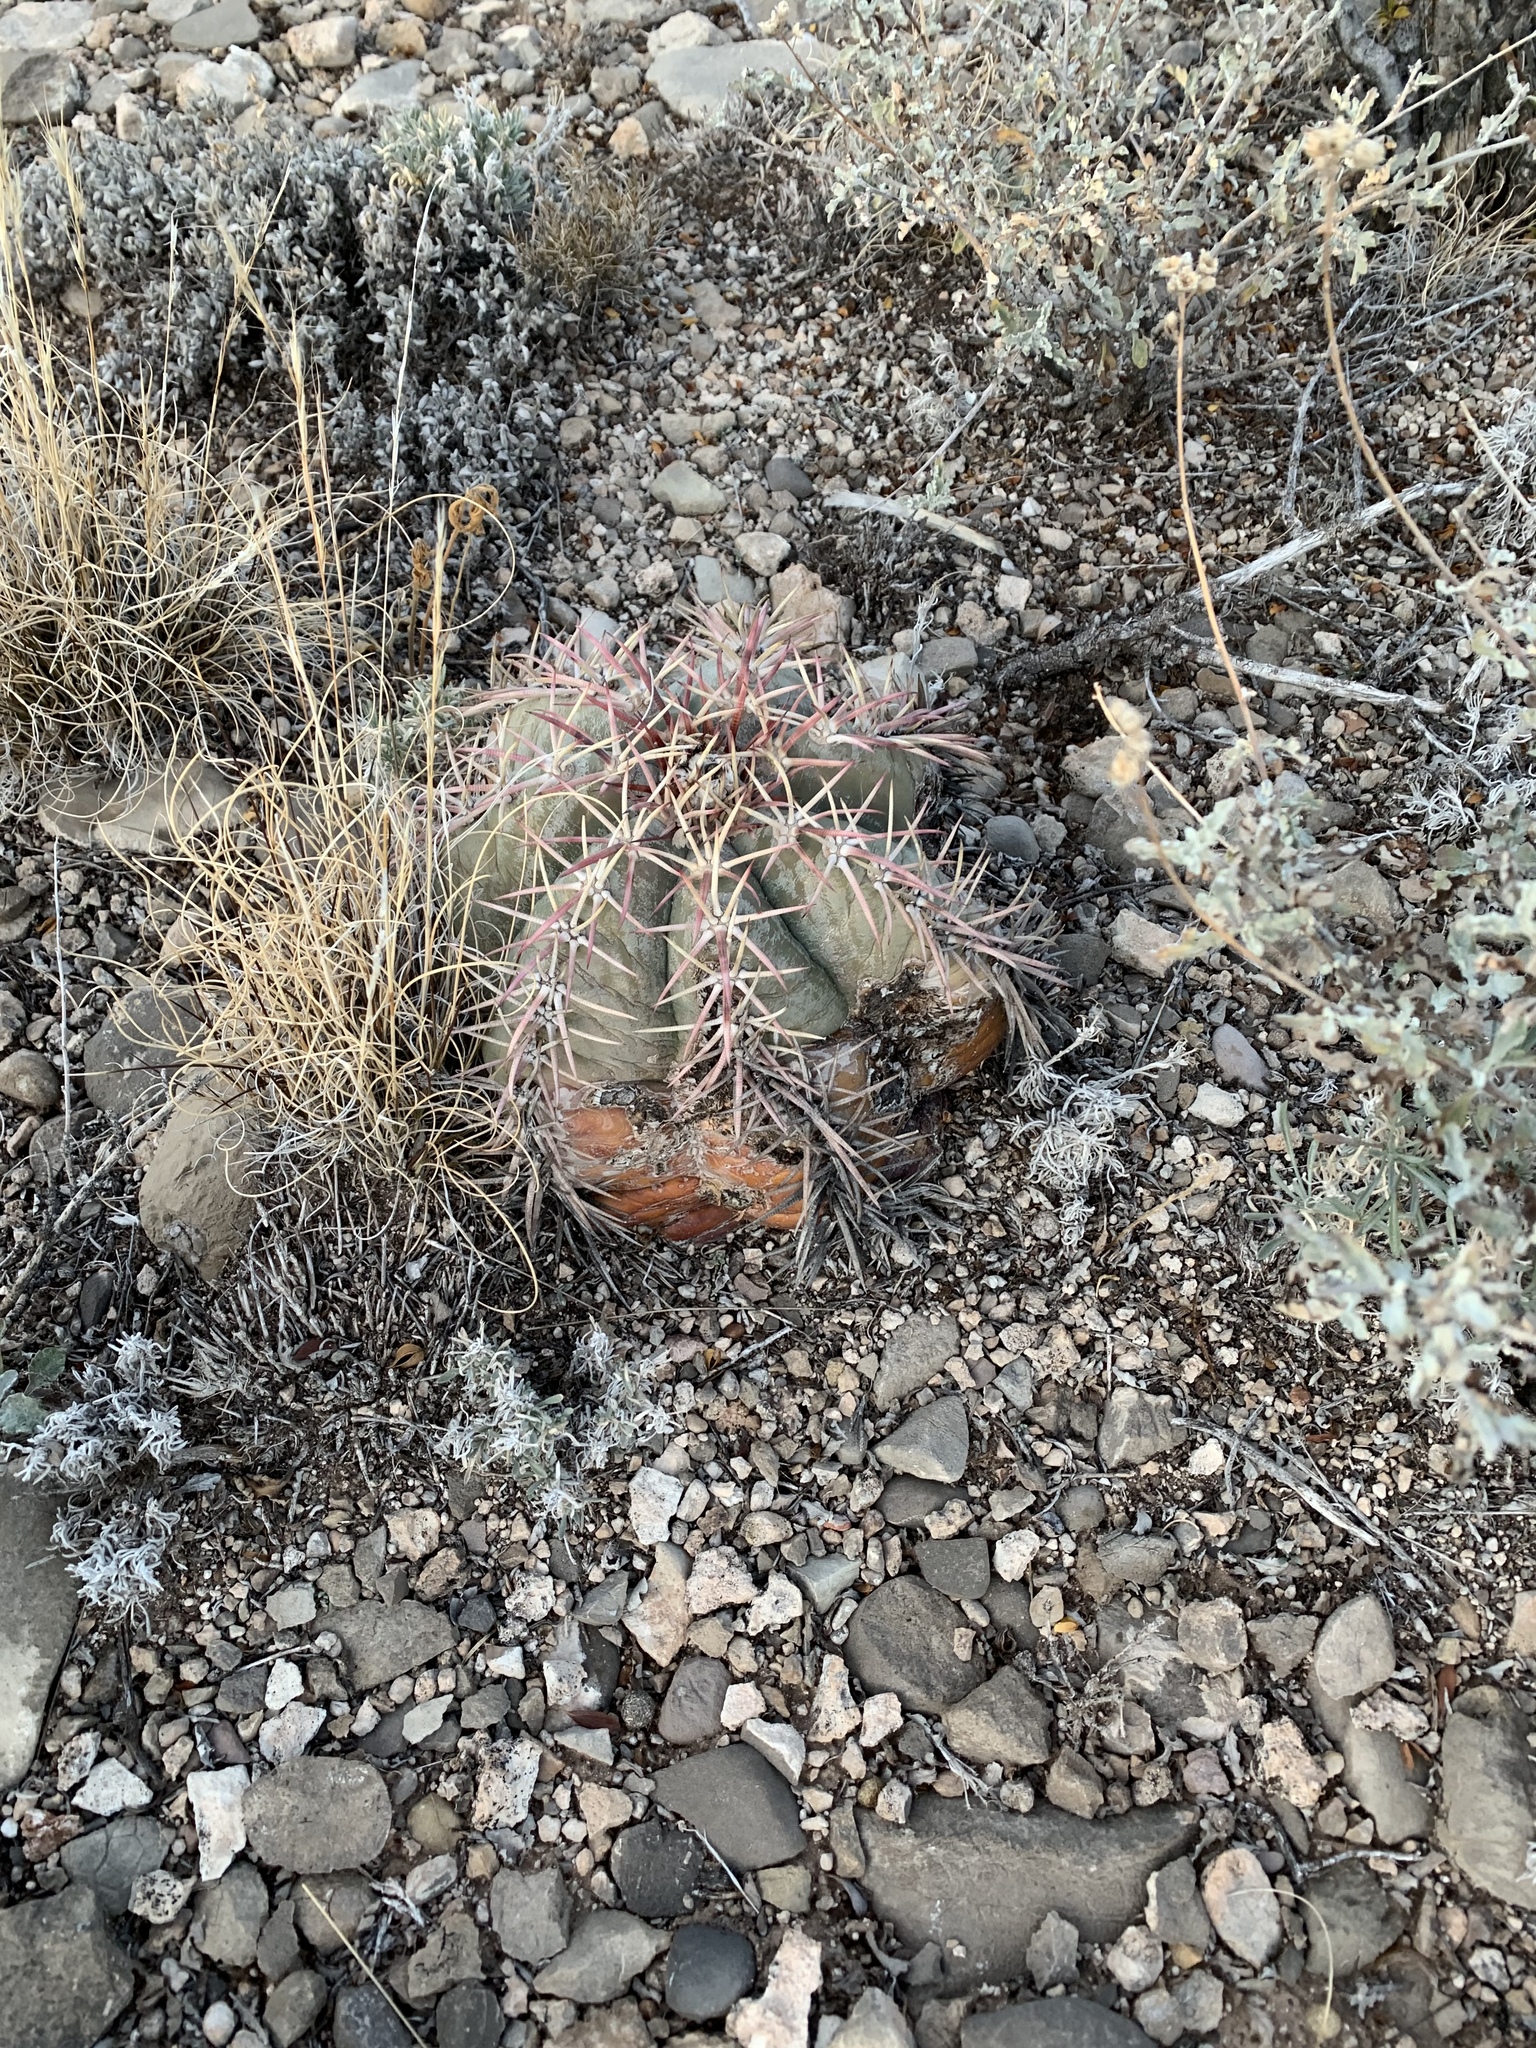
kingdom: Plantae
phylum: Tracheophyta
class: Magnoliopsida
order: Caryophyllales
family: Cactaceae
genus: Echinocactus
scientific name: Echinocactus horizonthalonius
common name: Devilshead
